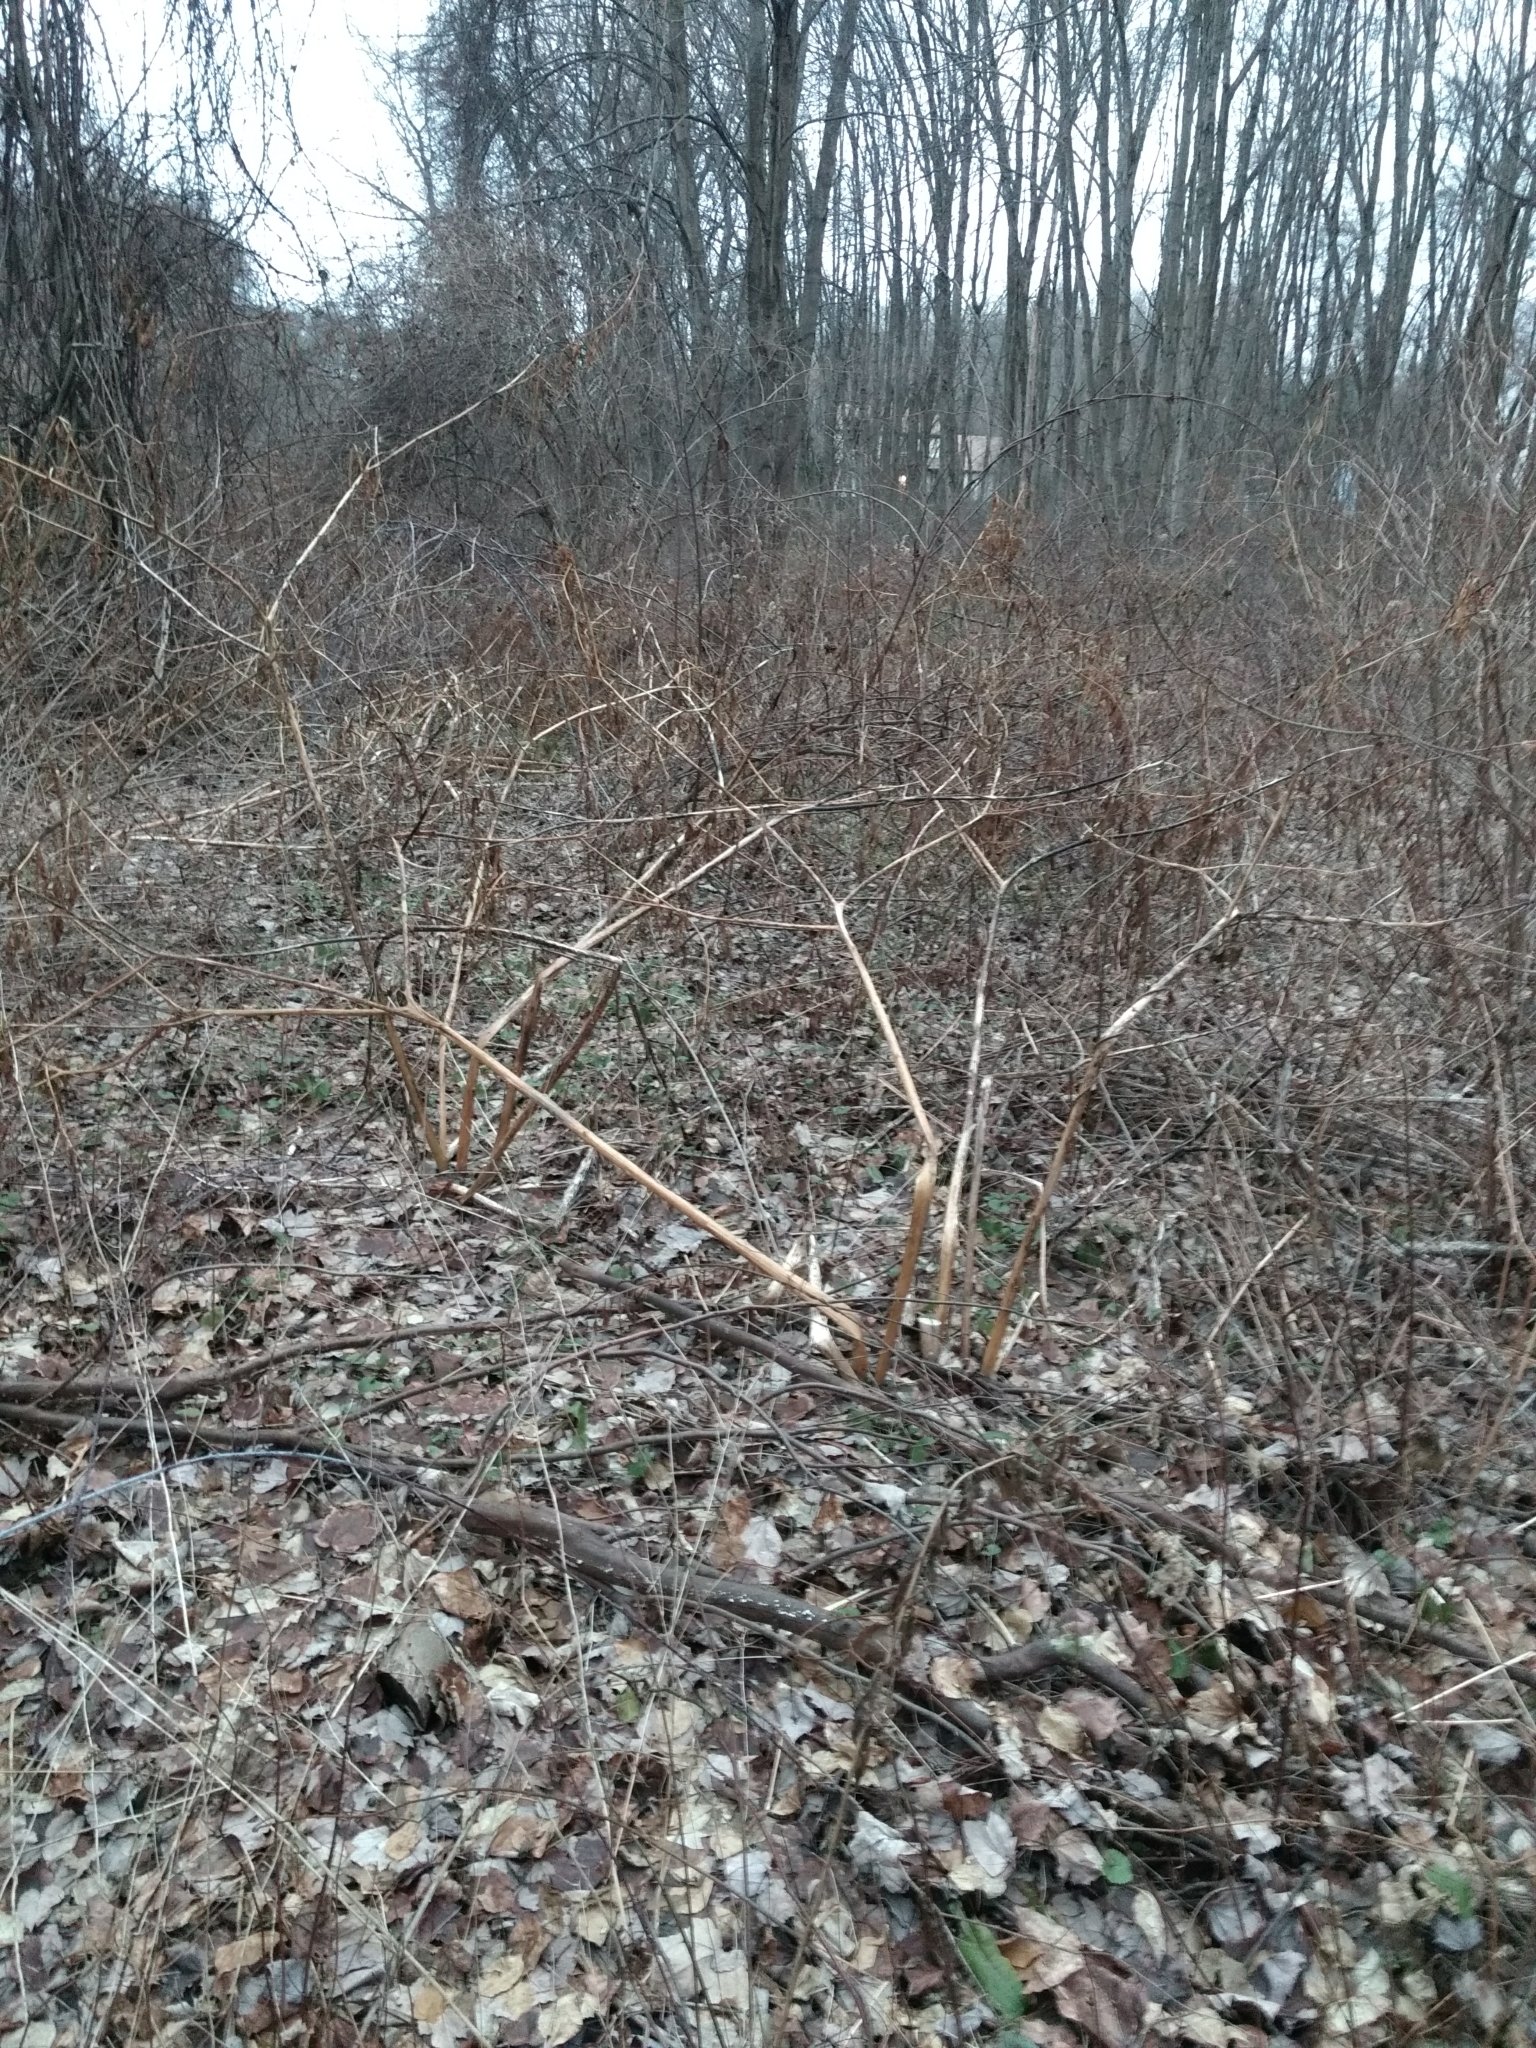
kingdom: Plantae
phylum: Tracheophyta
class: Magnoliopsida
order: Caryophyllales
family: Phytolaccaceae
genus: Phytolacca
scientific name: Phytolacca americana
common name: American pokeweed
